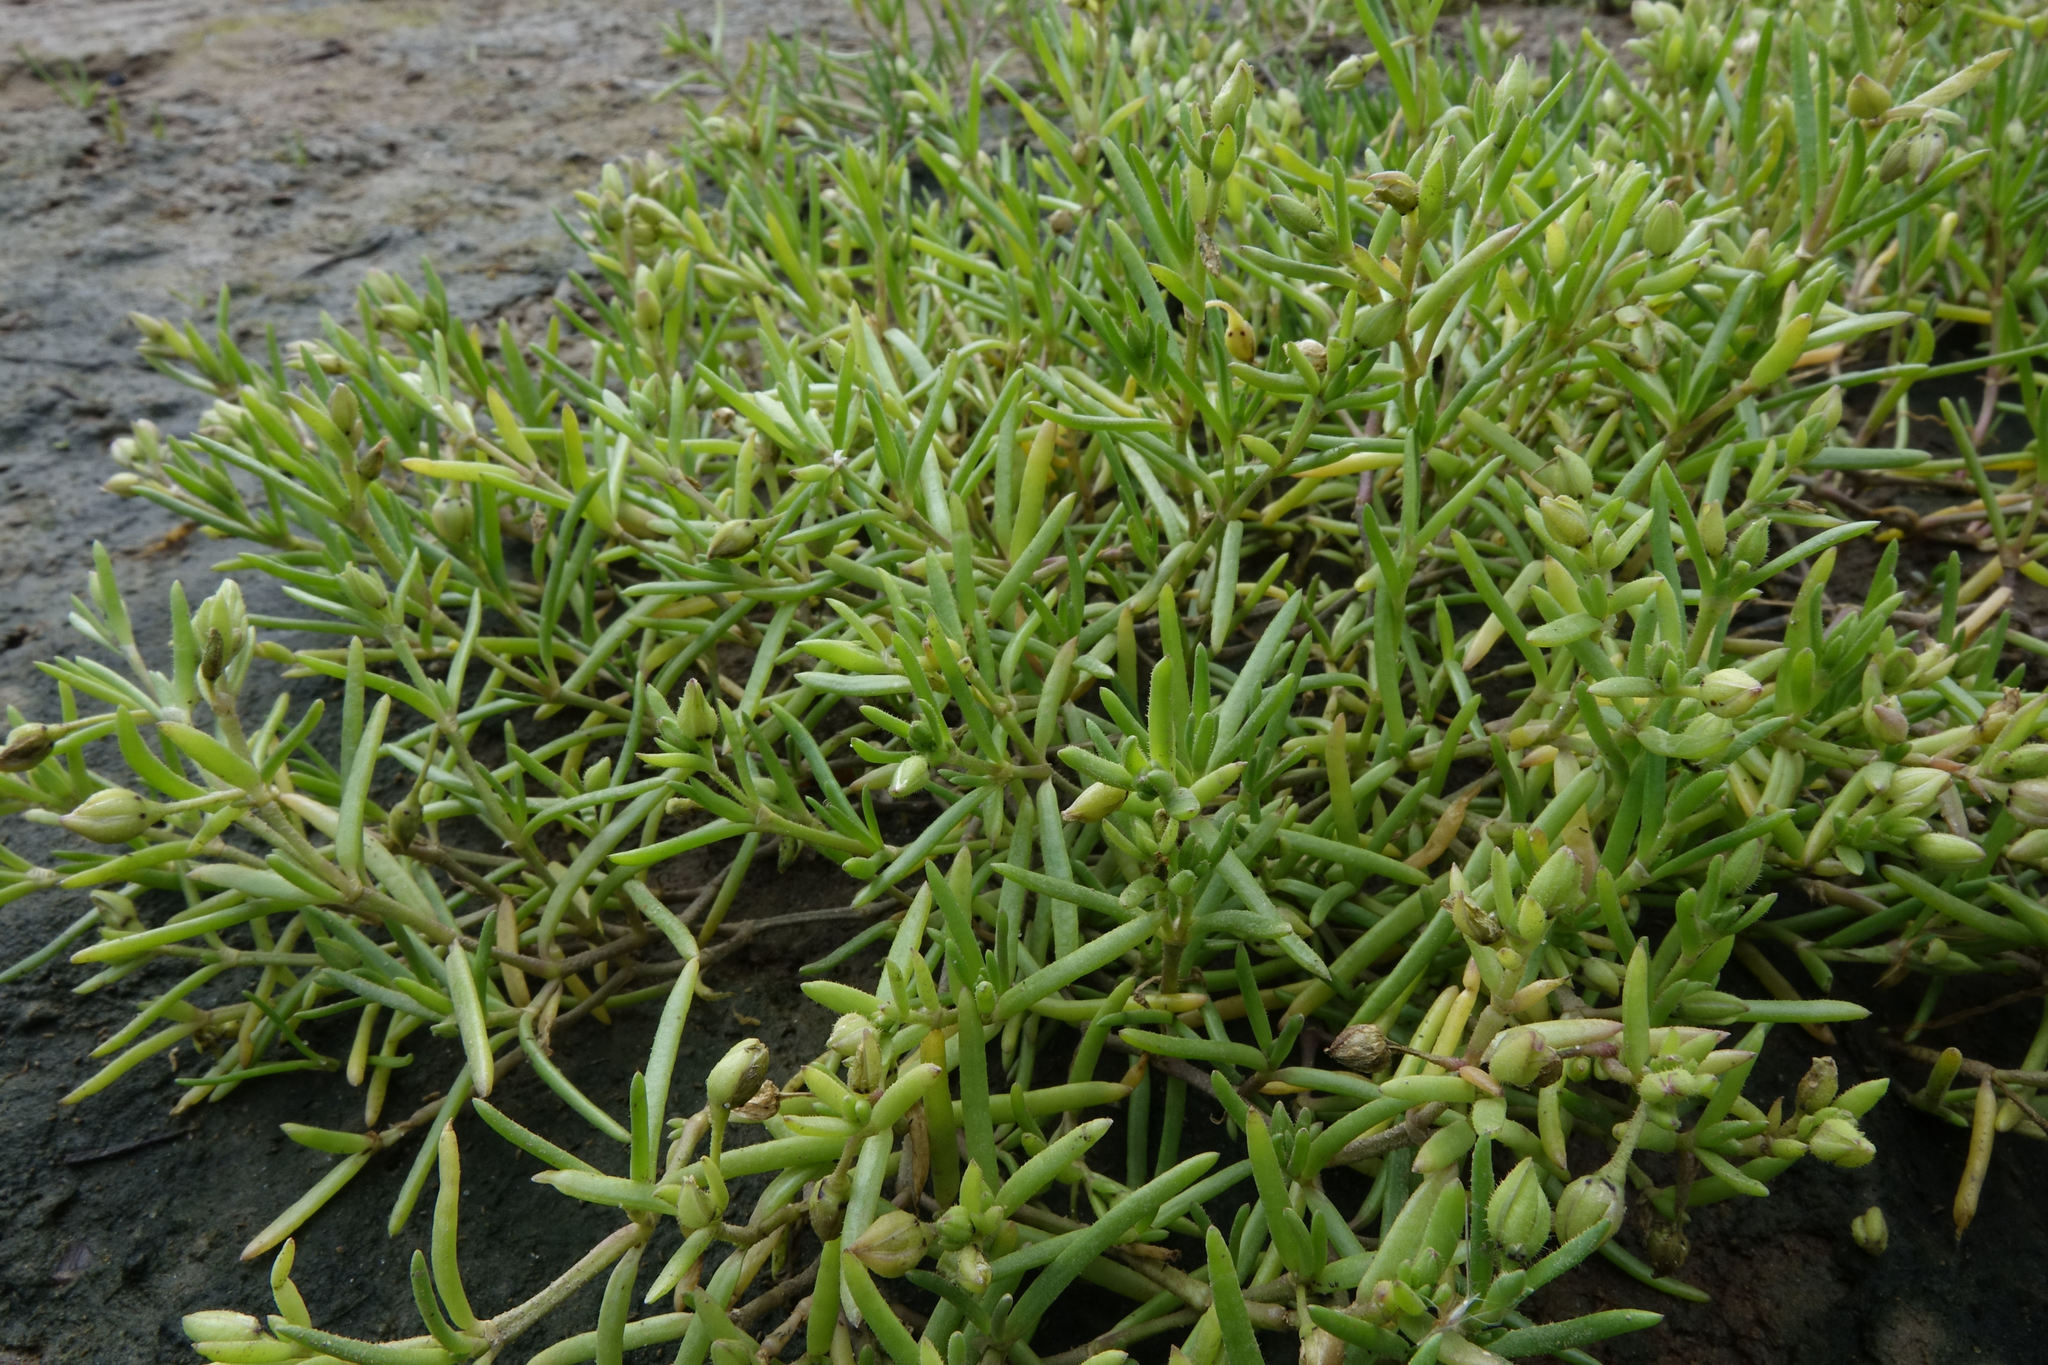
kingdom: Plantae
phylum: Tracheophyta
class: Magnoliopsida
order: Caryophyllales
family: Caryophyllaceae
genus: Spergularia
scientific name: Spergularia marina
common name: Lesser sea-spurrey
